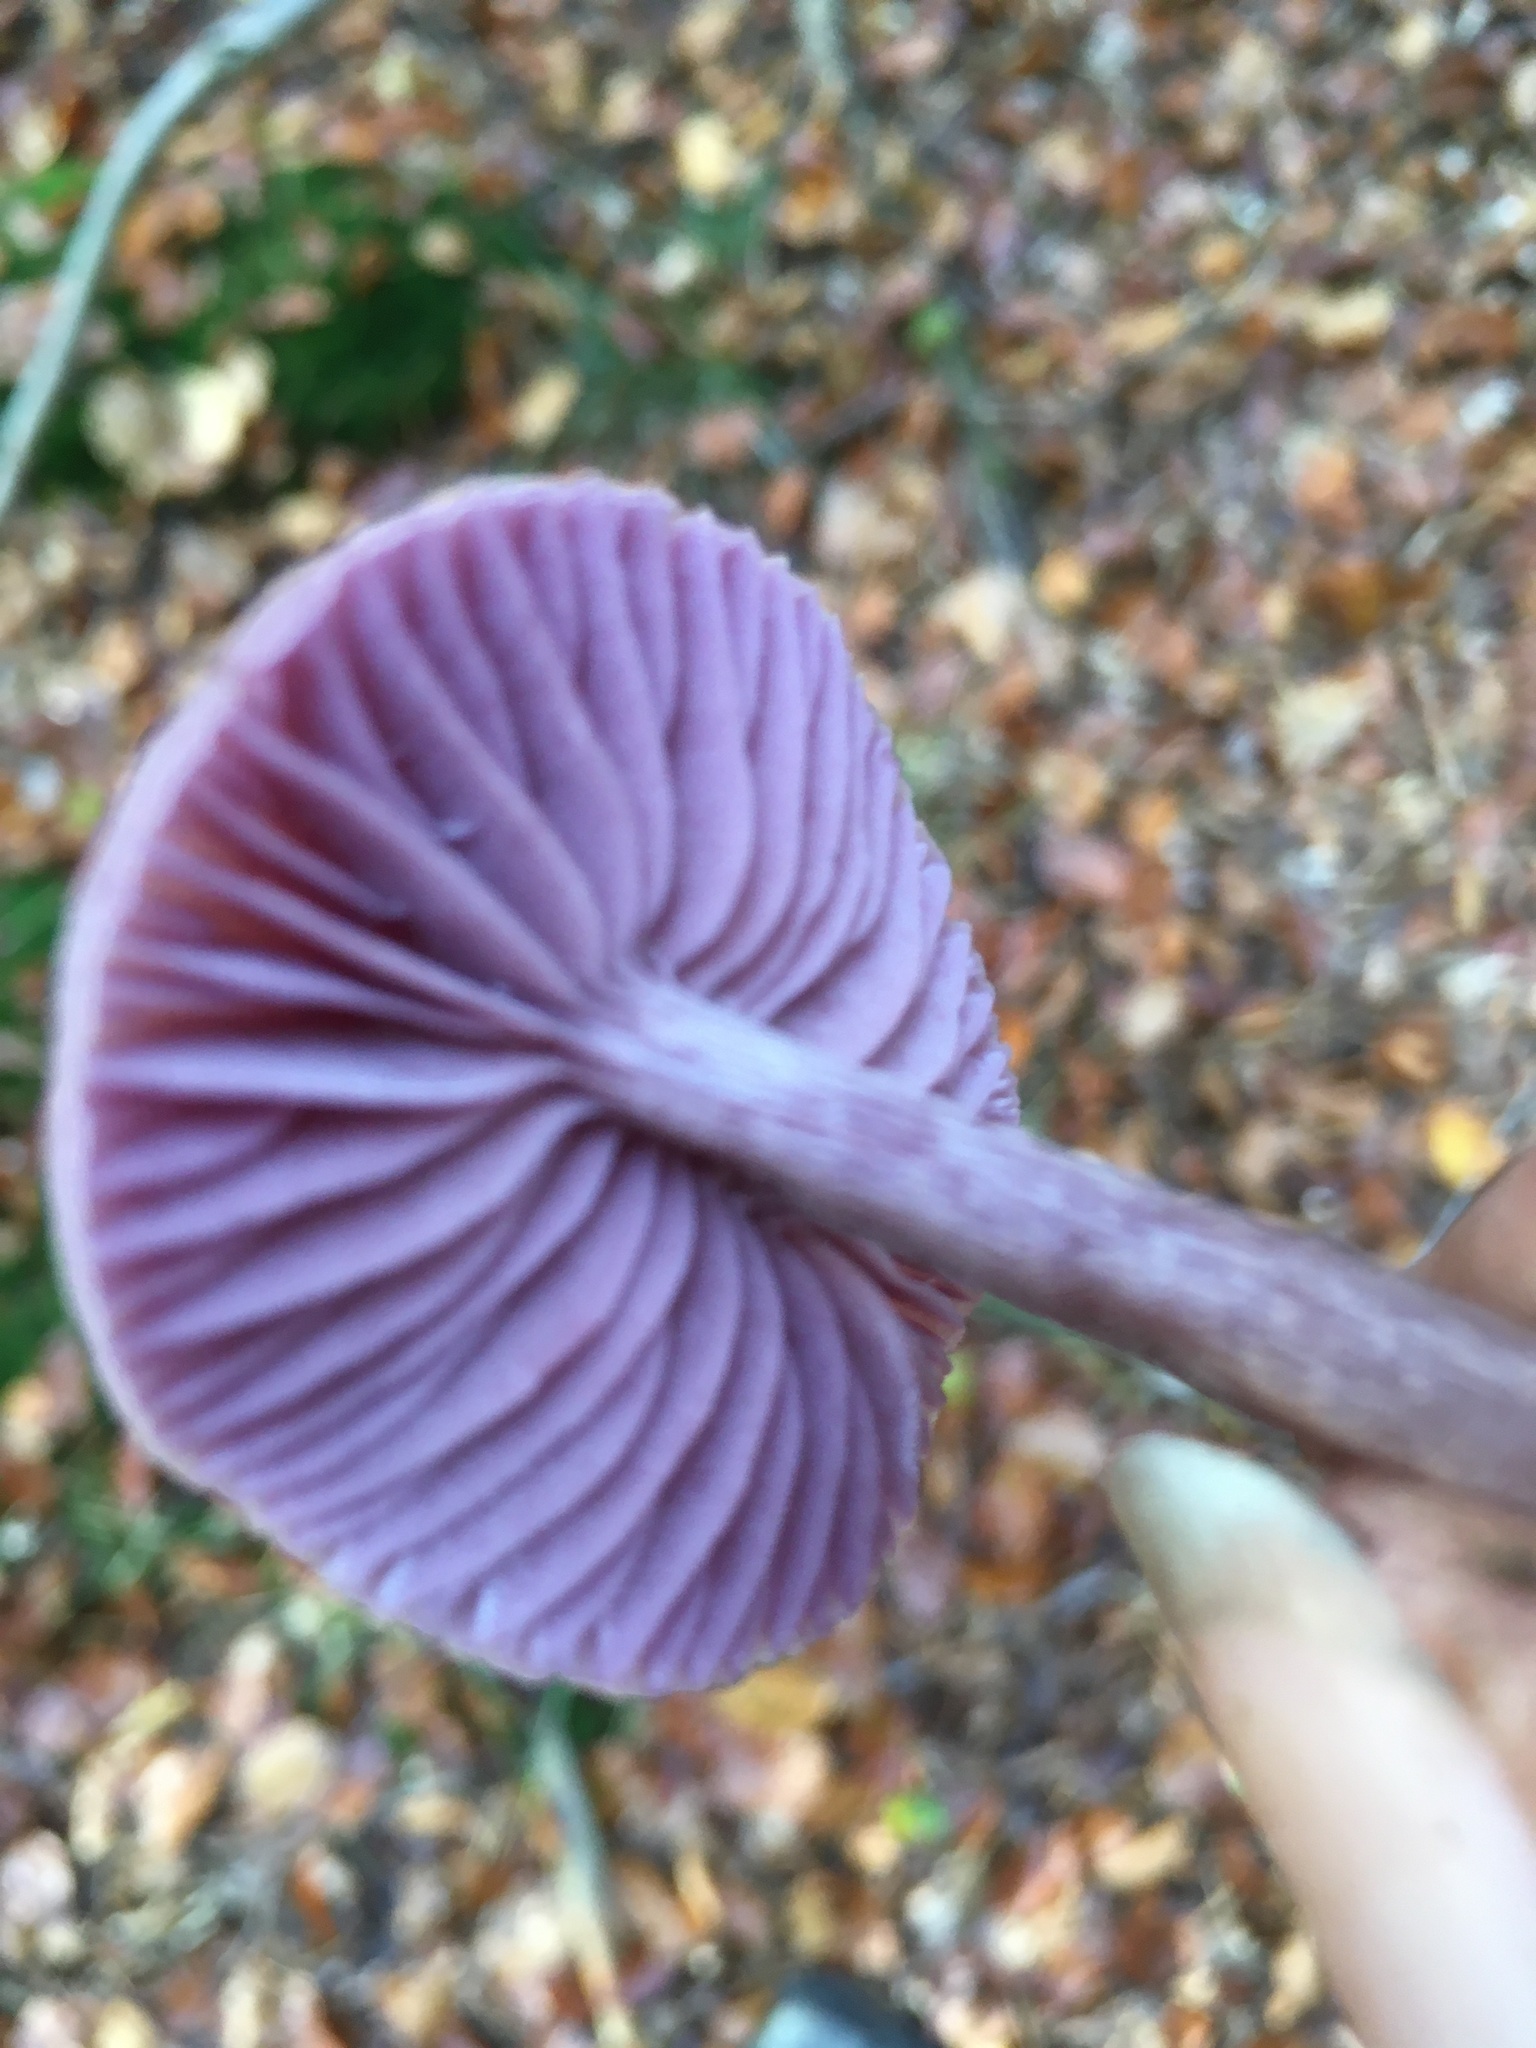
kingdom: Fungi
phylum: Basidiomycota
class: Agaricomycetes
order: Agaricales
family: Hydnangiaceae
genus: Laccaria
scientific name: Laccaria amethystina
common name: Amethyst deceiver
